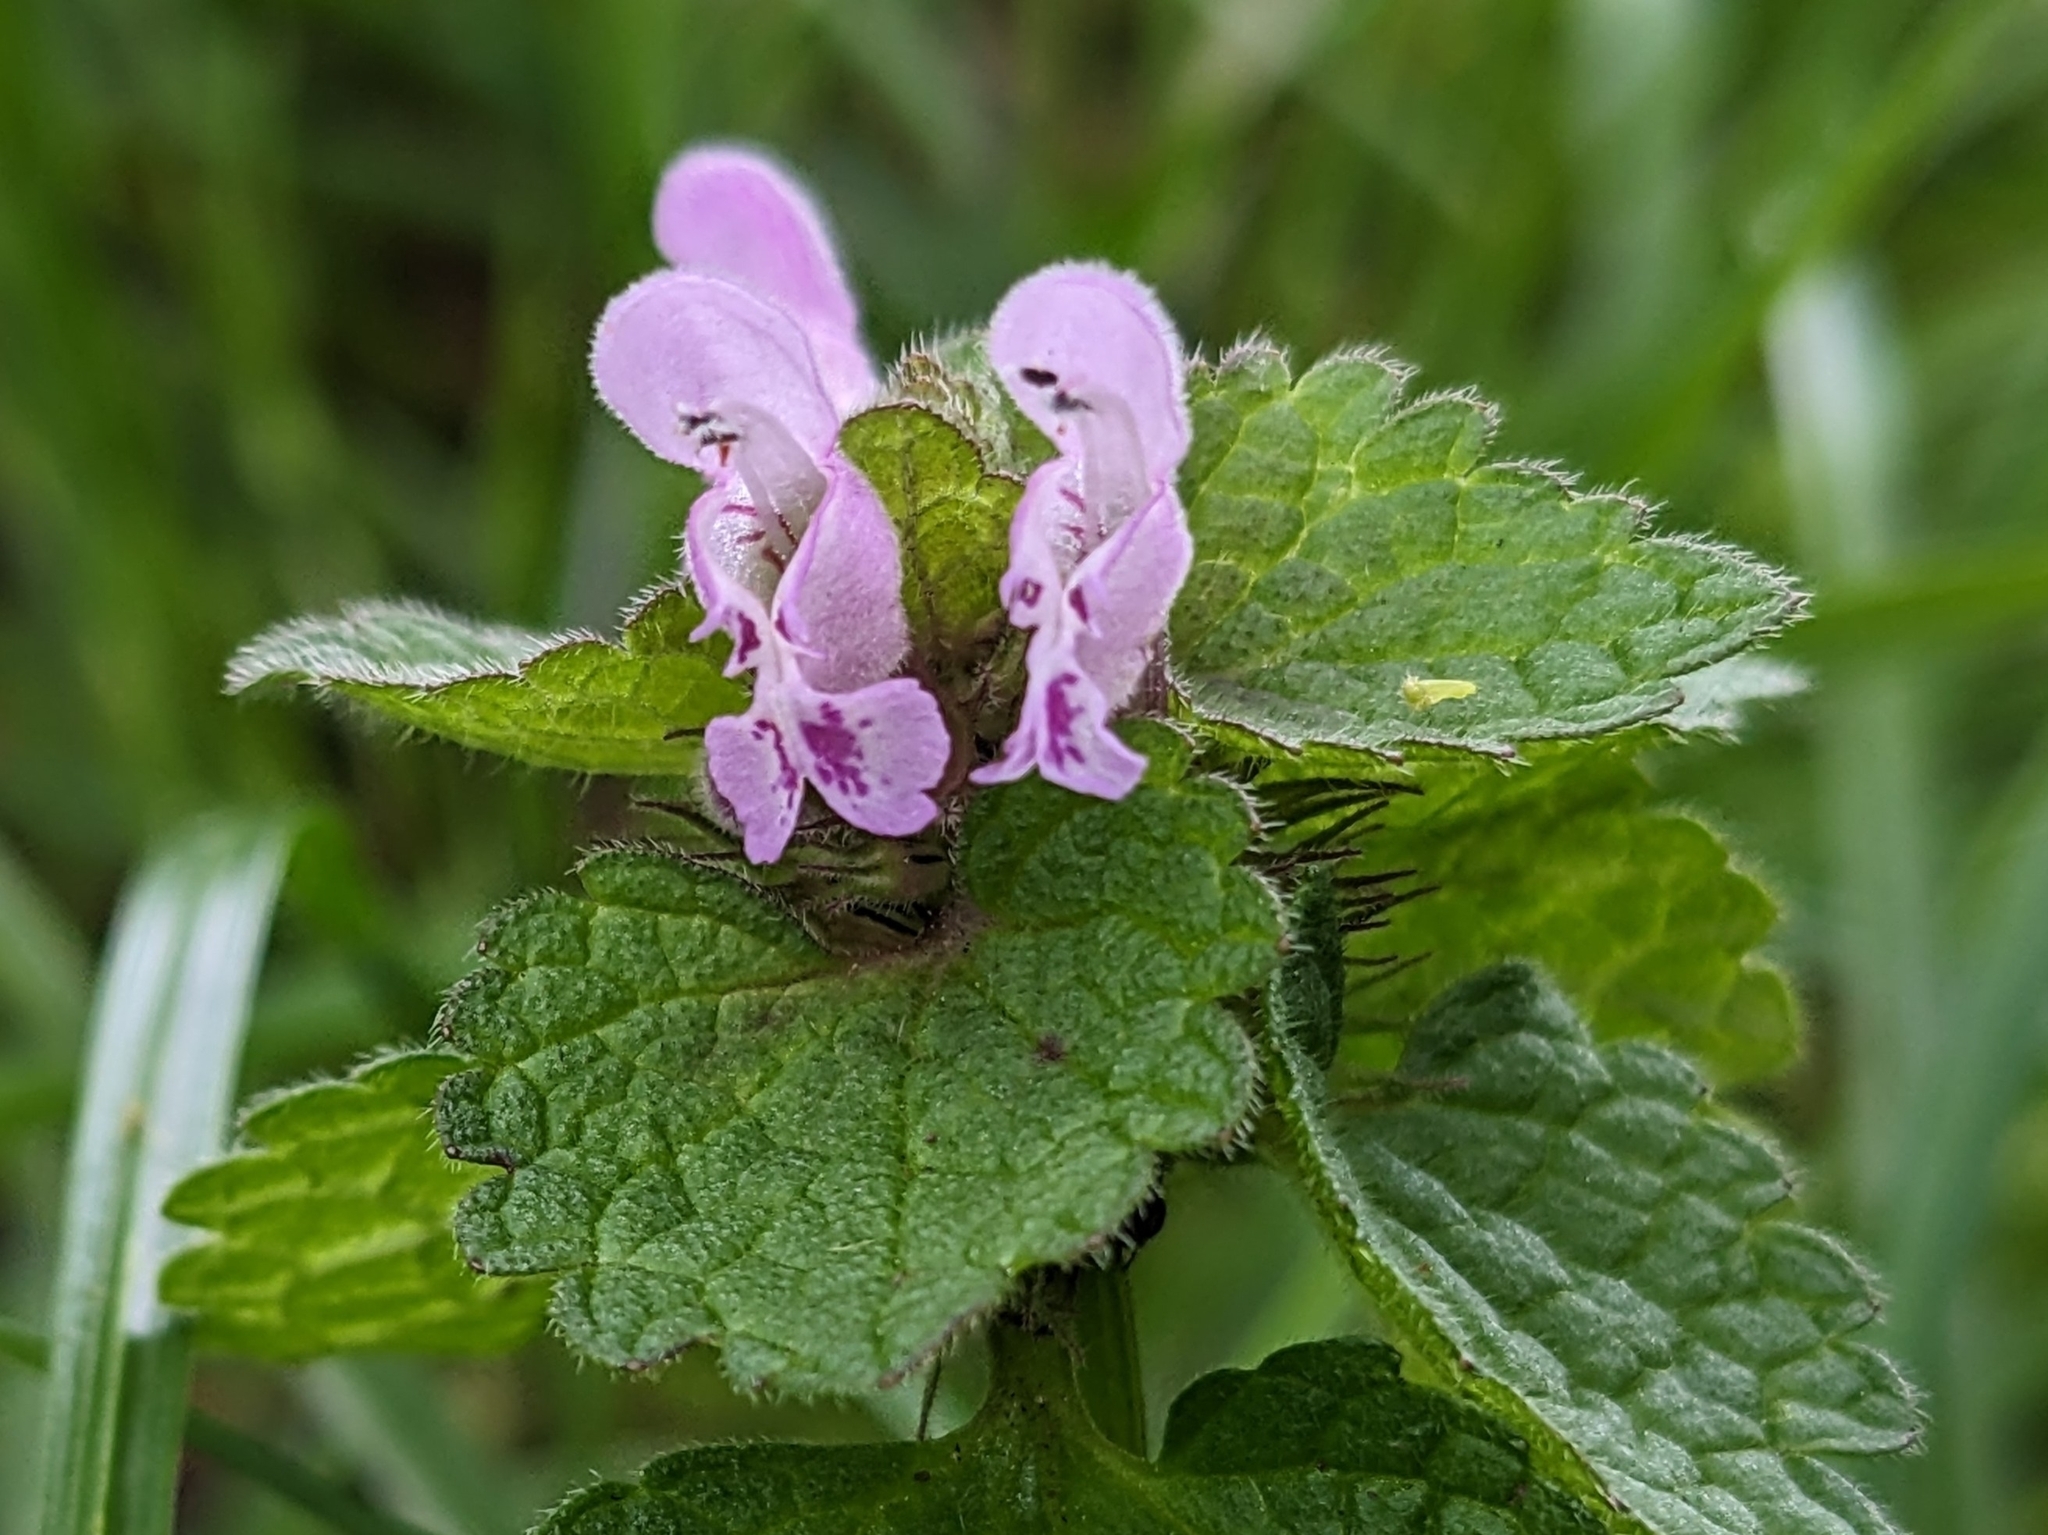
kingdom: Plantae
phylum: Tracheophyta
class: Magnoliopsida
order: Lamiales
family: Lamiaceae
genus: Lamium
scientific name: Lamium purpureum
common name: Red dead-nettle
